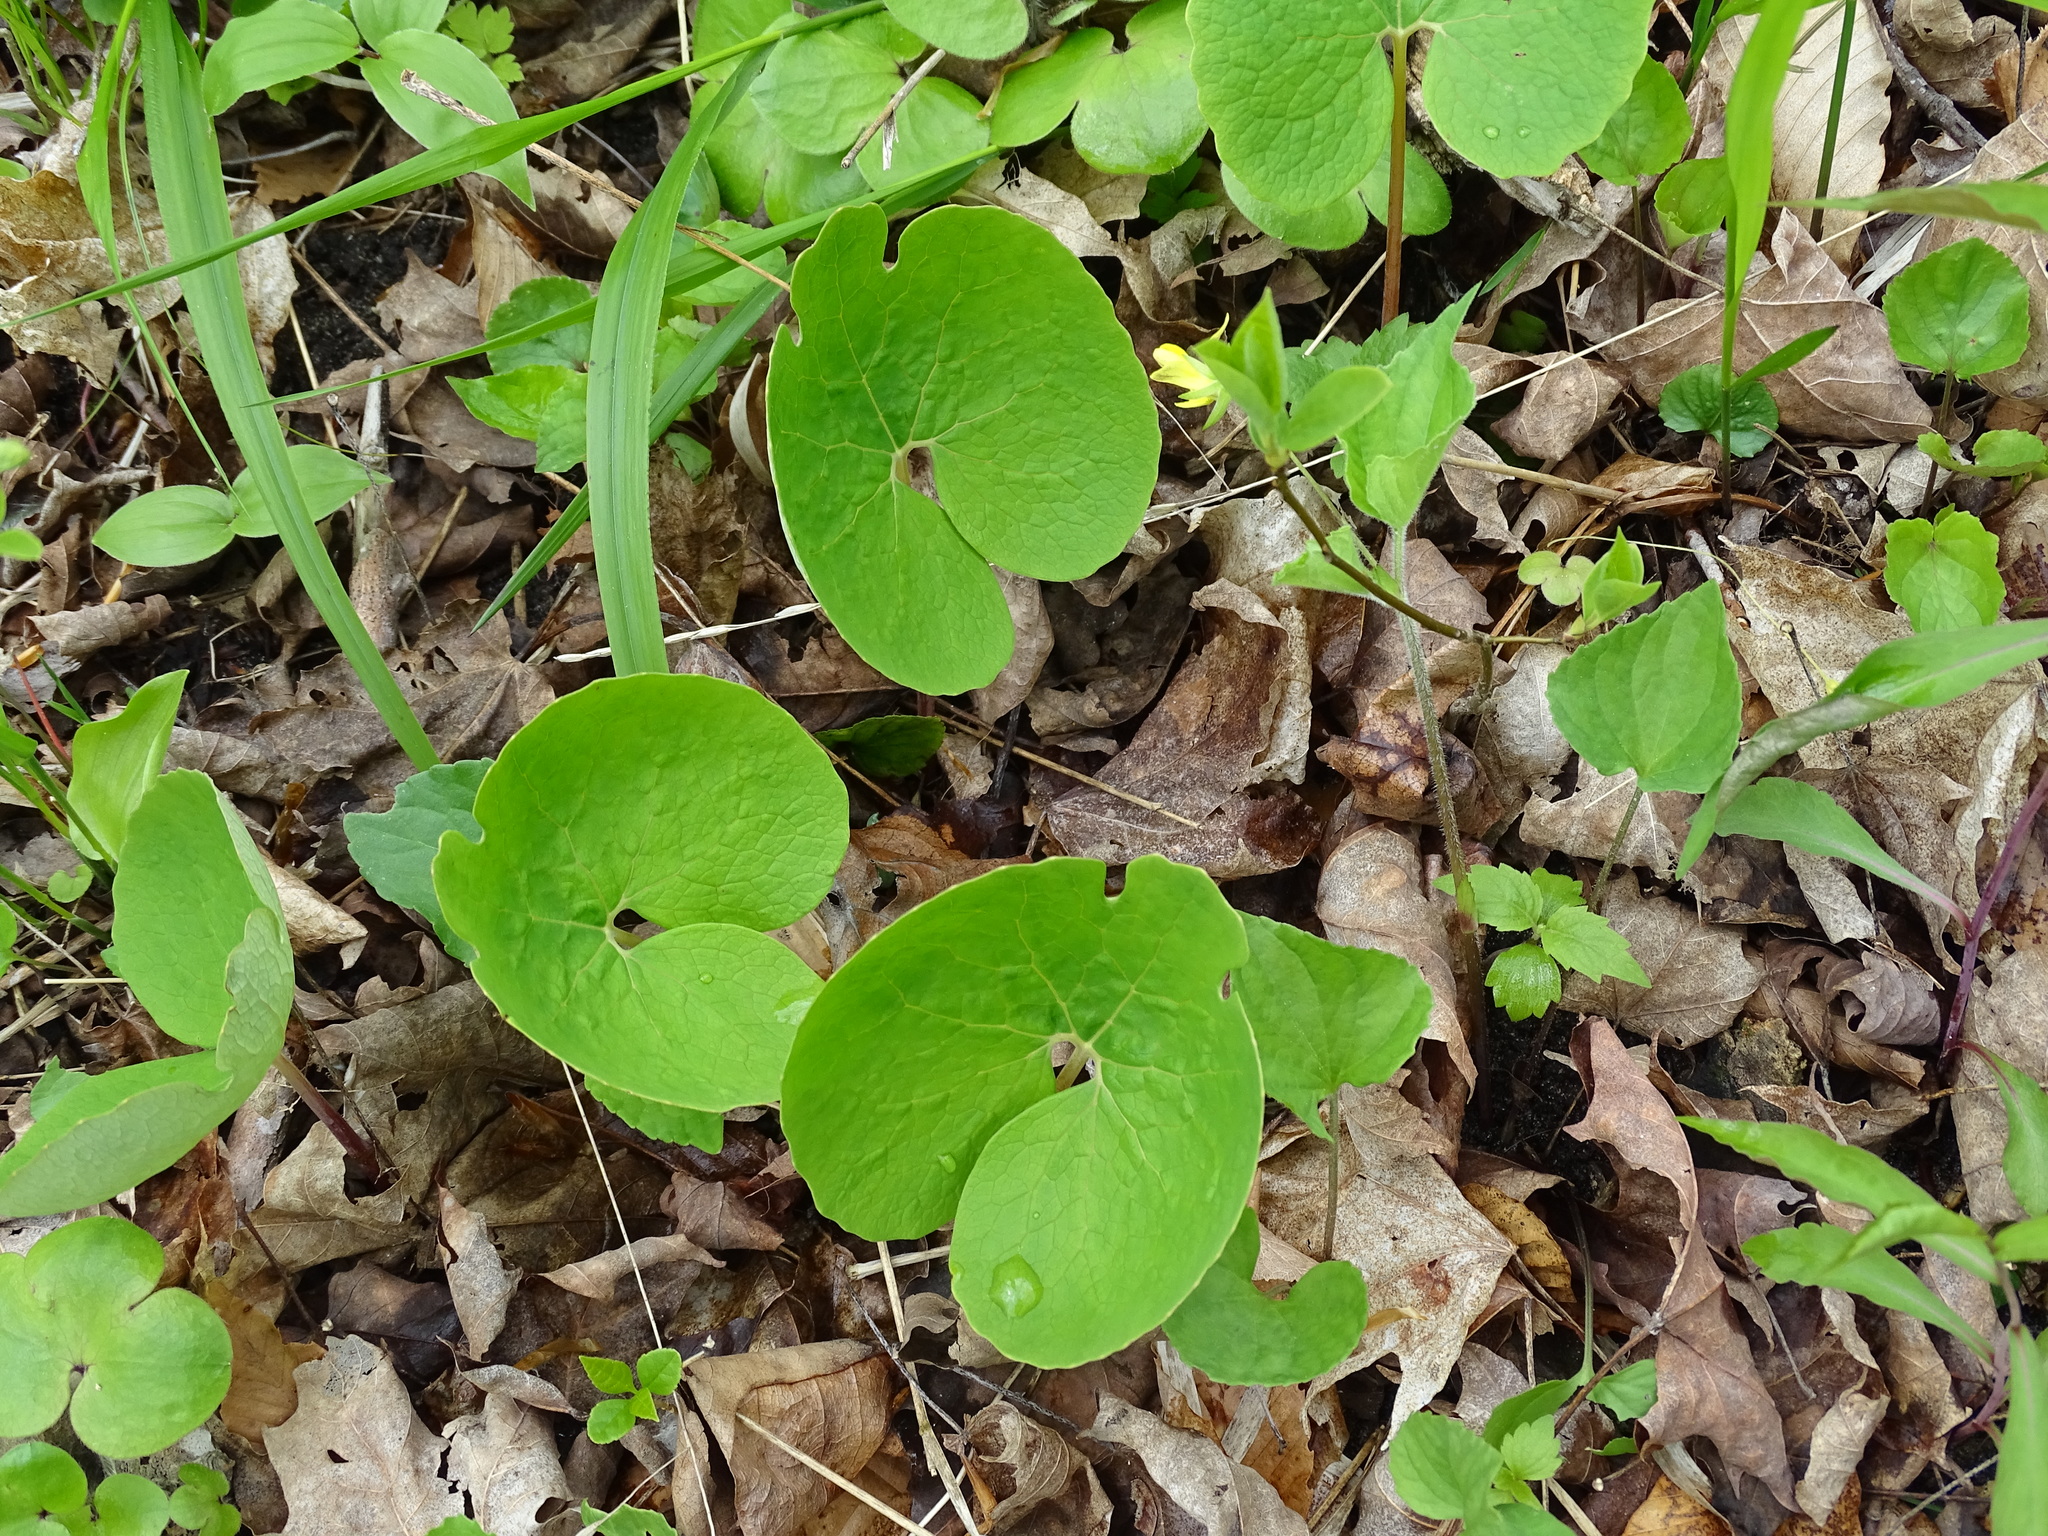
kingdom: Plantae
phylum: Tracheophyta
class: Magnoliopsida
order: Ranunculales
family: Papaveraceae
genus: Sanguinaria
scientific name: Sanguinaria canadensis
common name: Bloodroot
